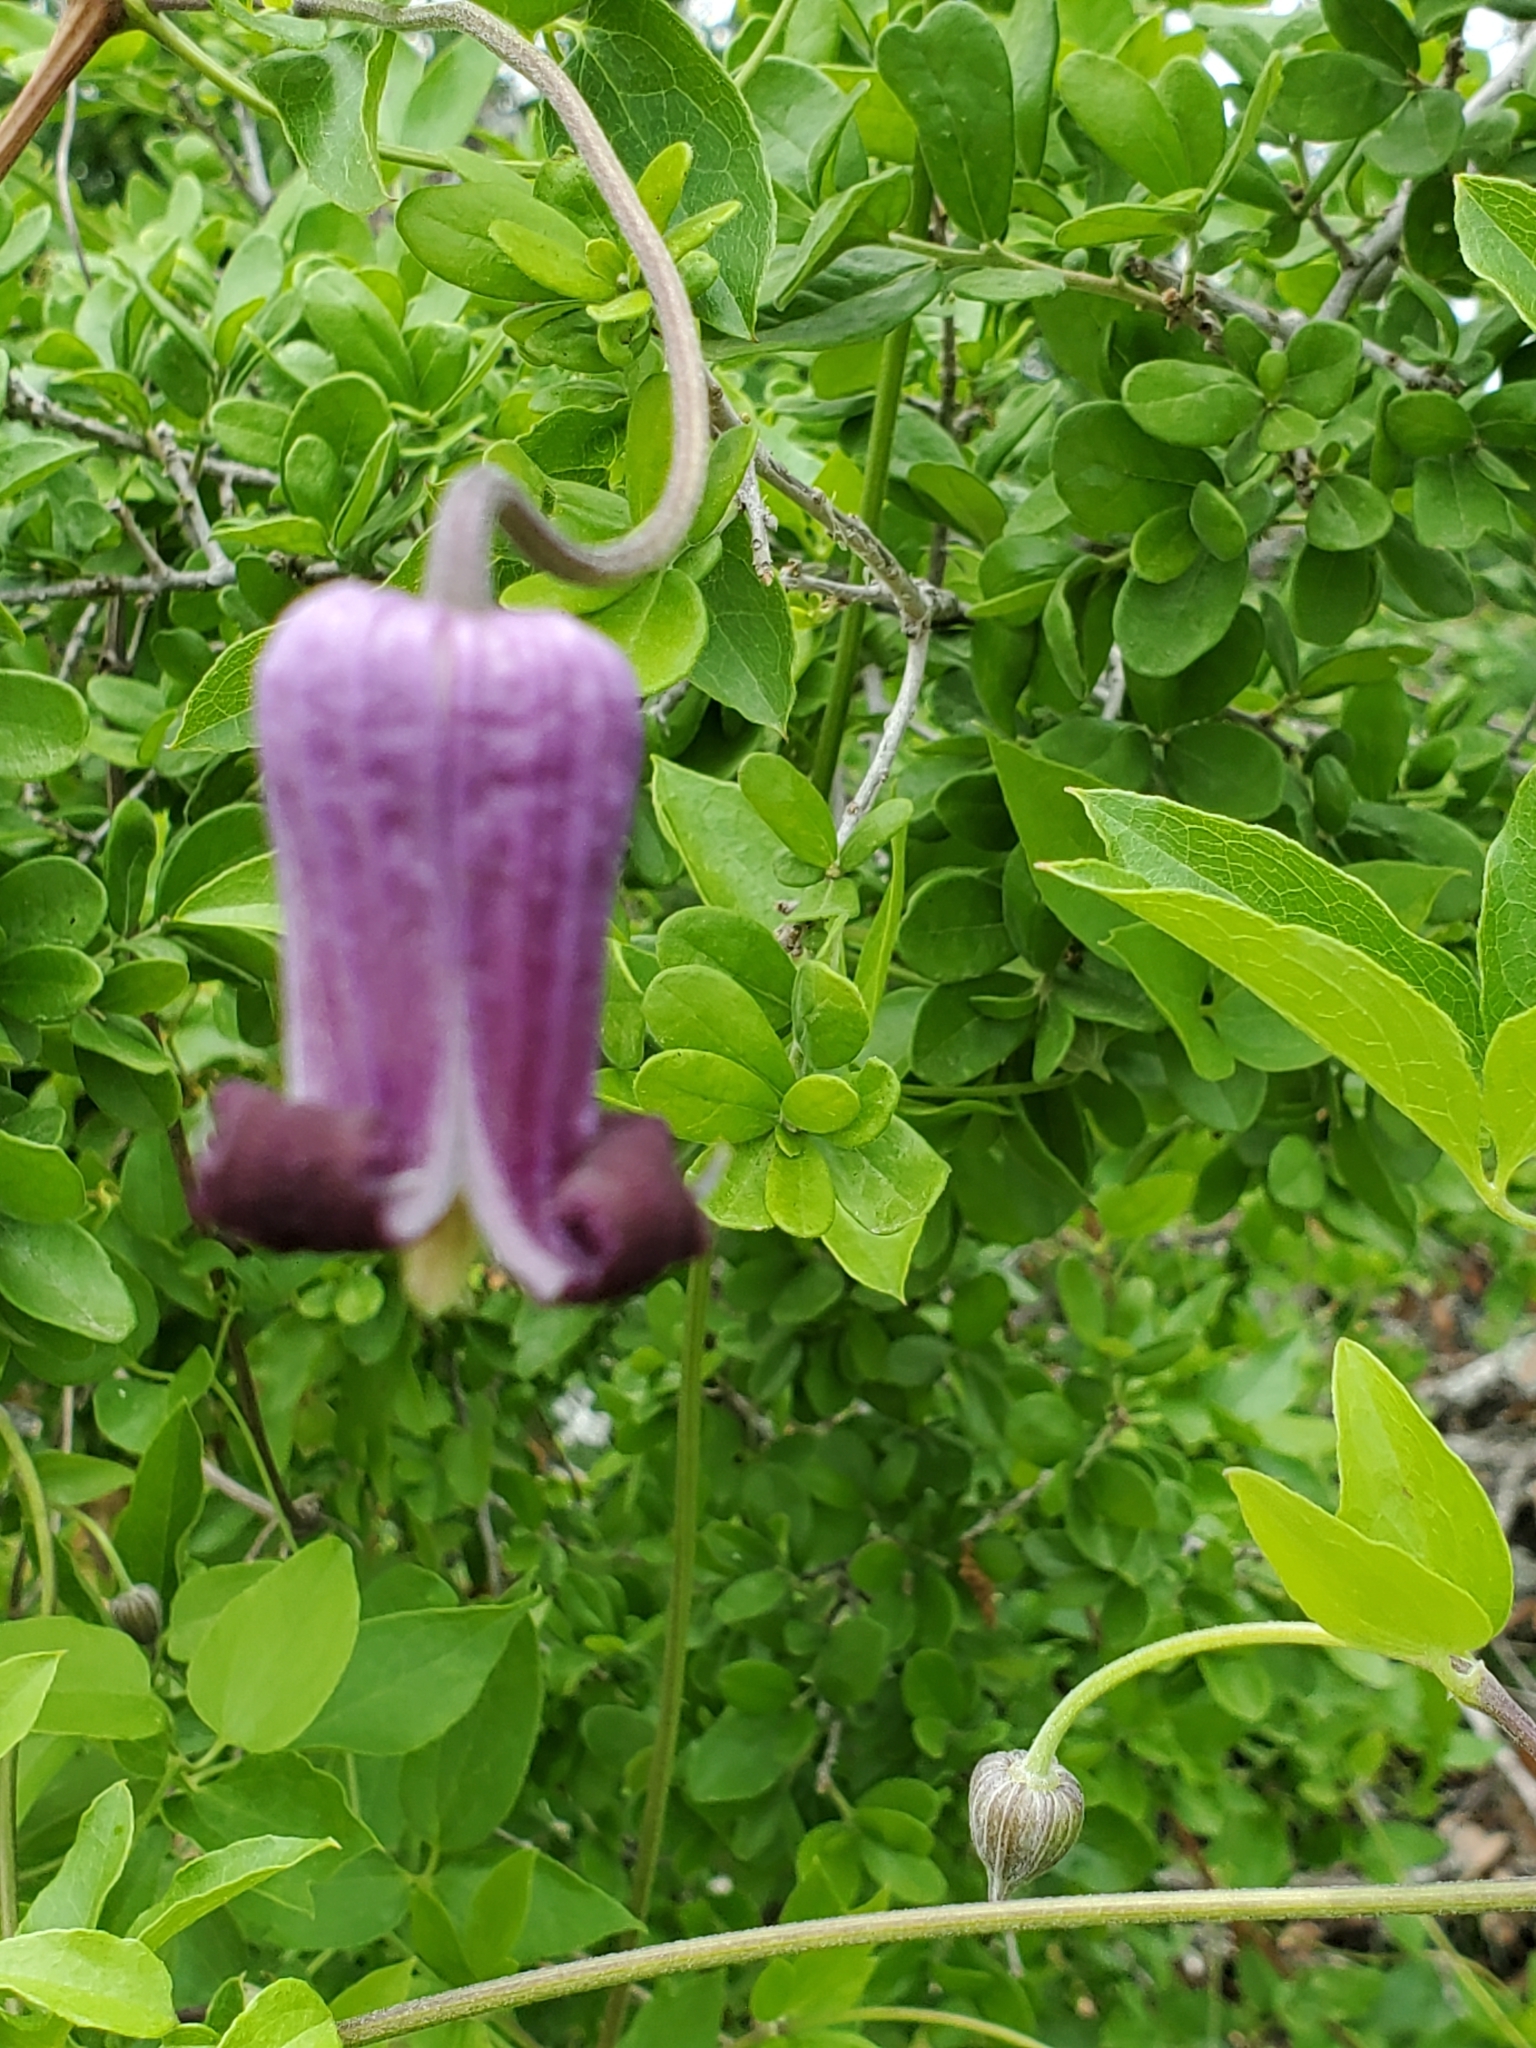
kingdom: Plantae
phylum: Tracheophyta
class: Magnoliopsida
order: Ranunculales
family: Ranunculaceae
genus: Clematis
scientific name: Clematis pitcheri
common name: Bellflower clematis
